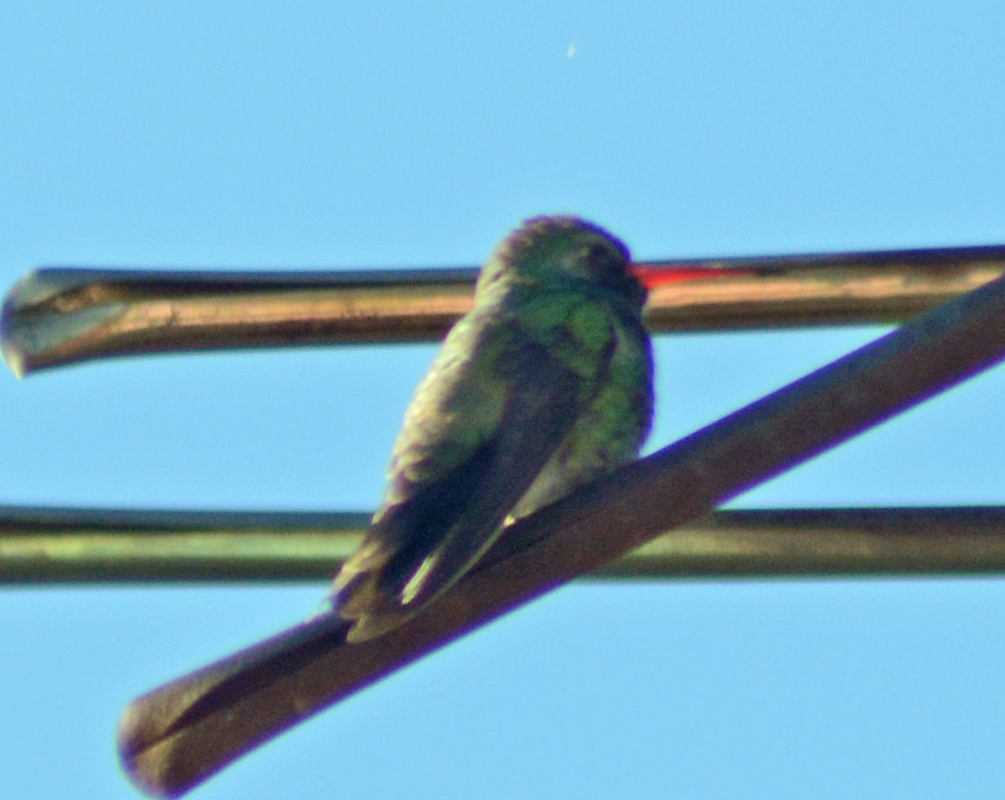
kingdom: Animalia
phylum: Chordata
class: Aves
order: Apodiformes
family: Trochilidae
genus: Cynanthus
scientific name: Cynanthus latirostris
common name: Broad-billed hummingbird
